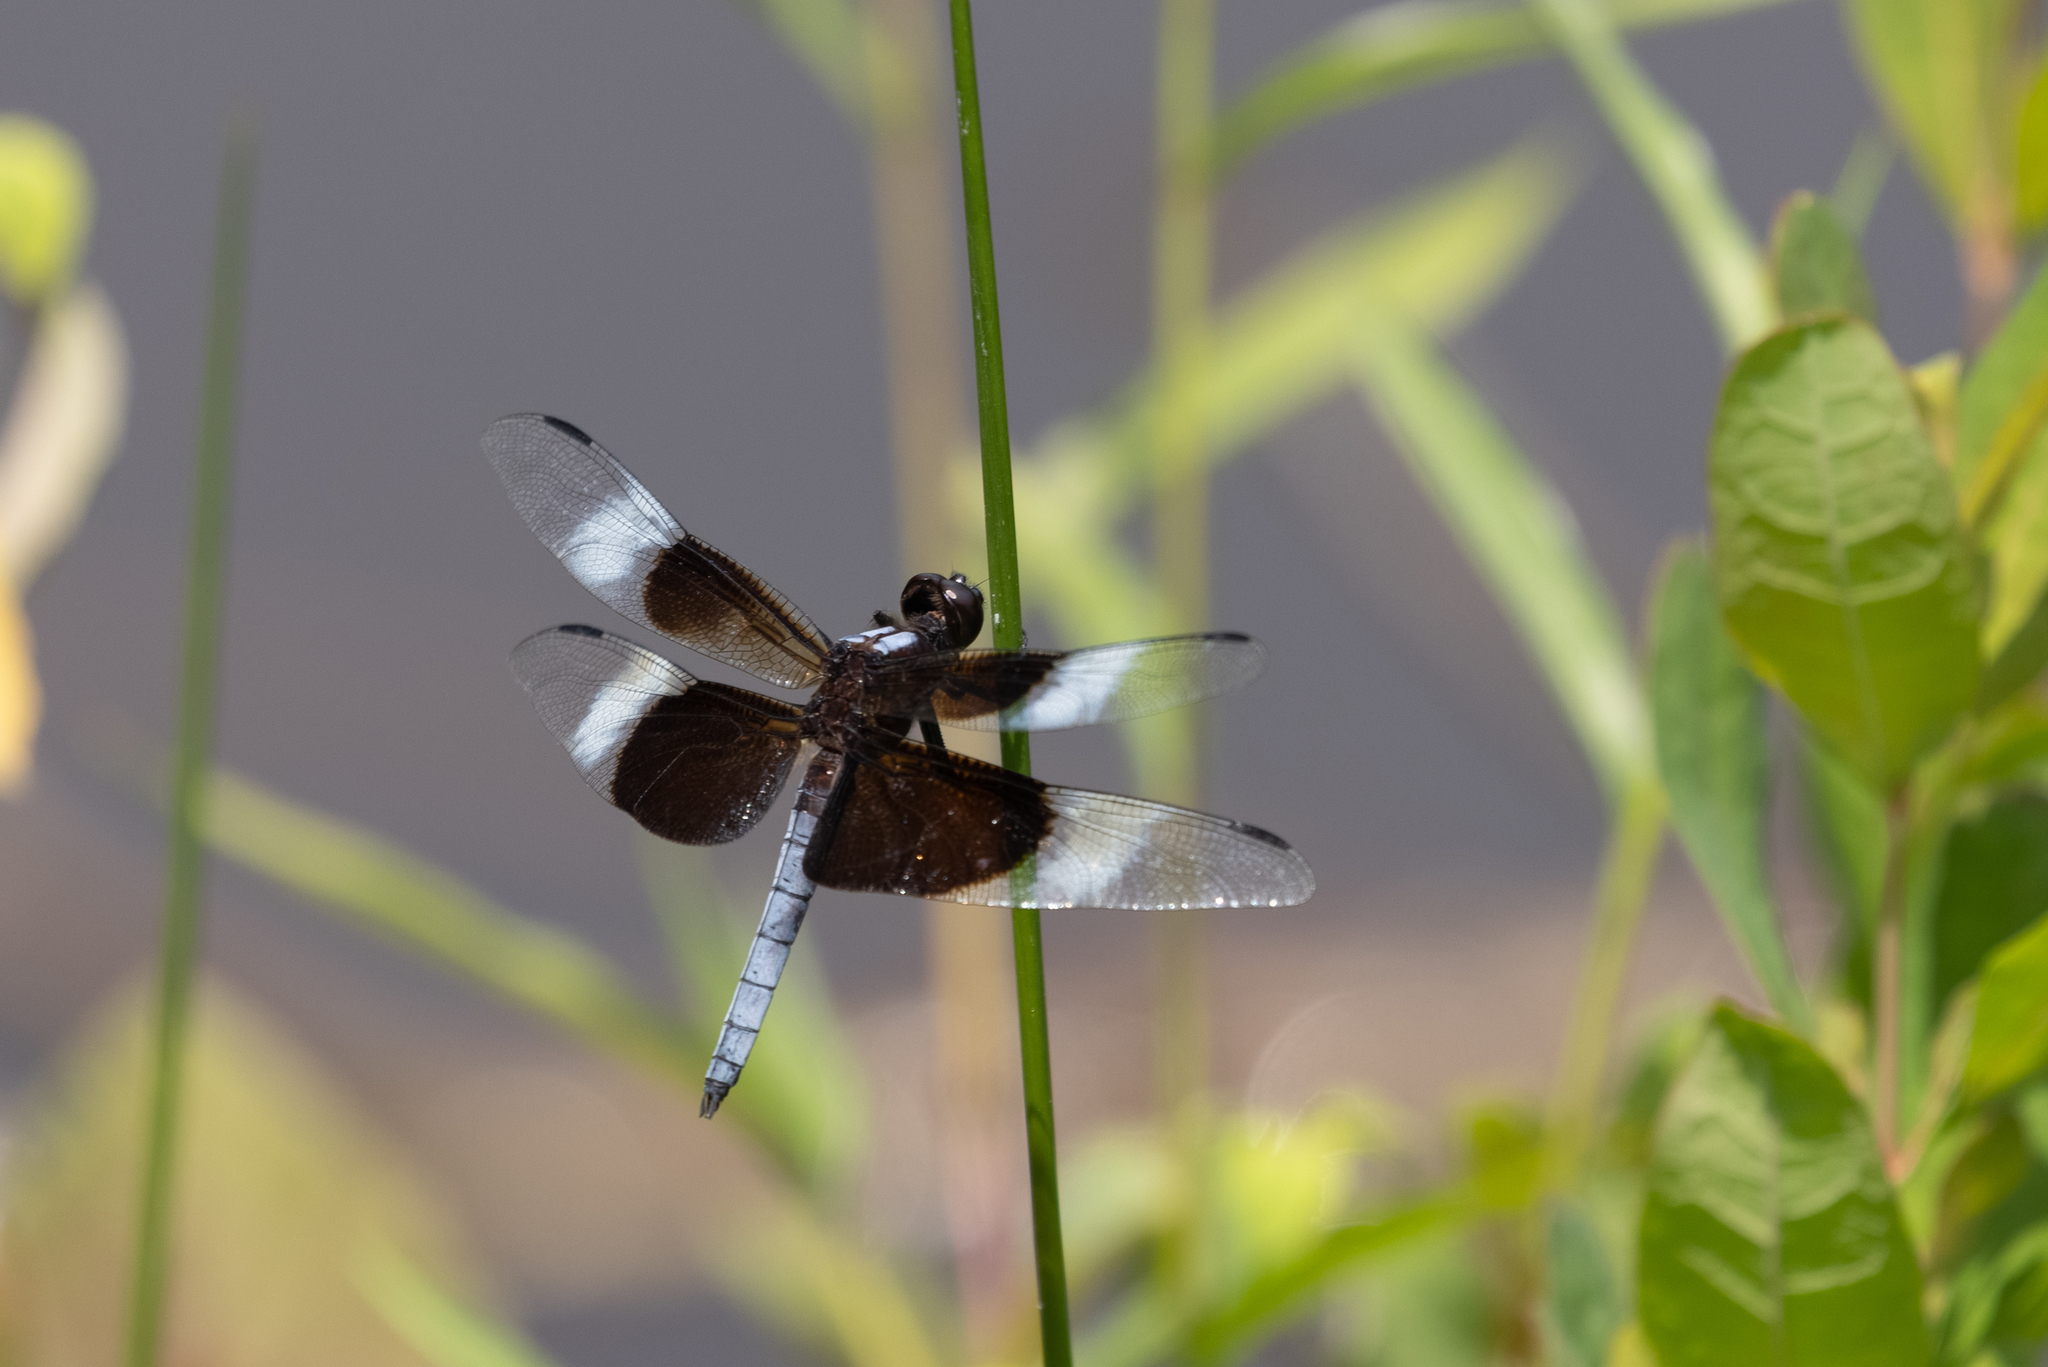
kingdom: Animalia
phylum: Arthropoda
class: Insecta
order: Odonata
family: Libellulidae
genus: Libellula
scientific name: Libellula luctuosa
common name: Widow skimmer
